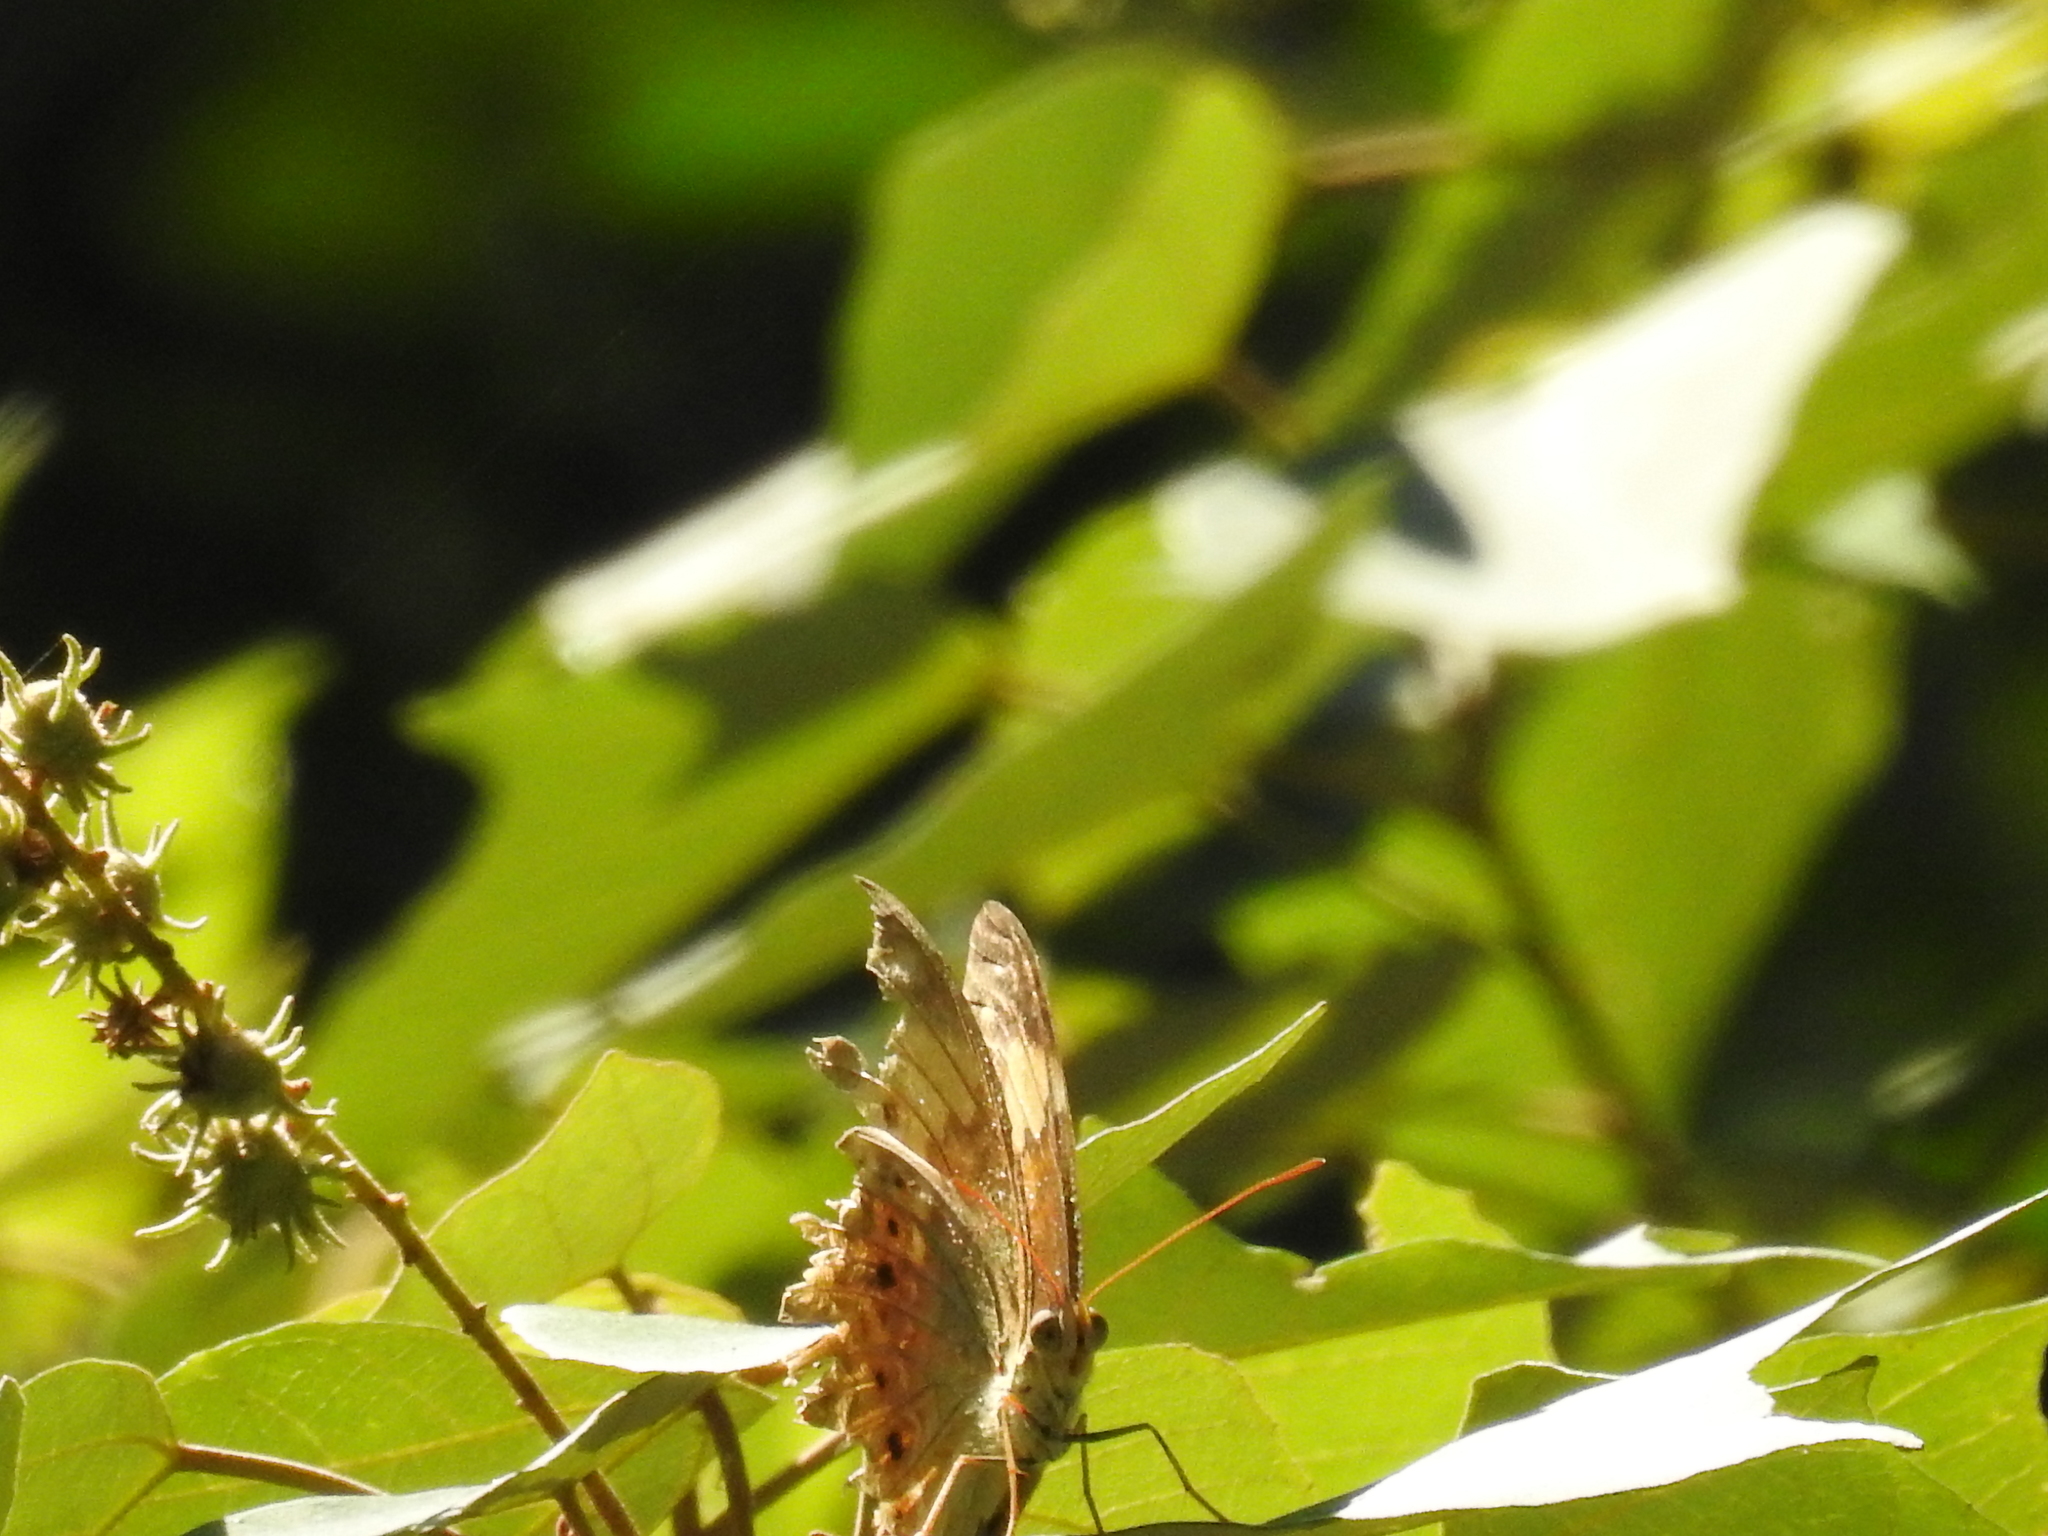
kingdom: Animalia
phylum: Arthropoda
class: Insecta
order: Lepidoptera
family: Nymphalidae
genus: Cupha
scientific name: Cupha erymanthis
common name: Rustic
